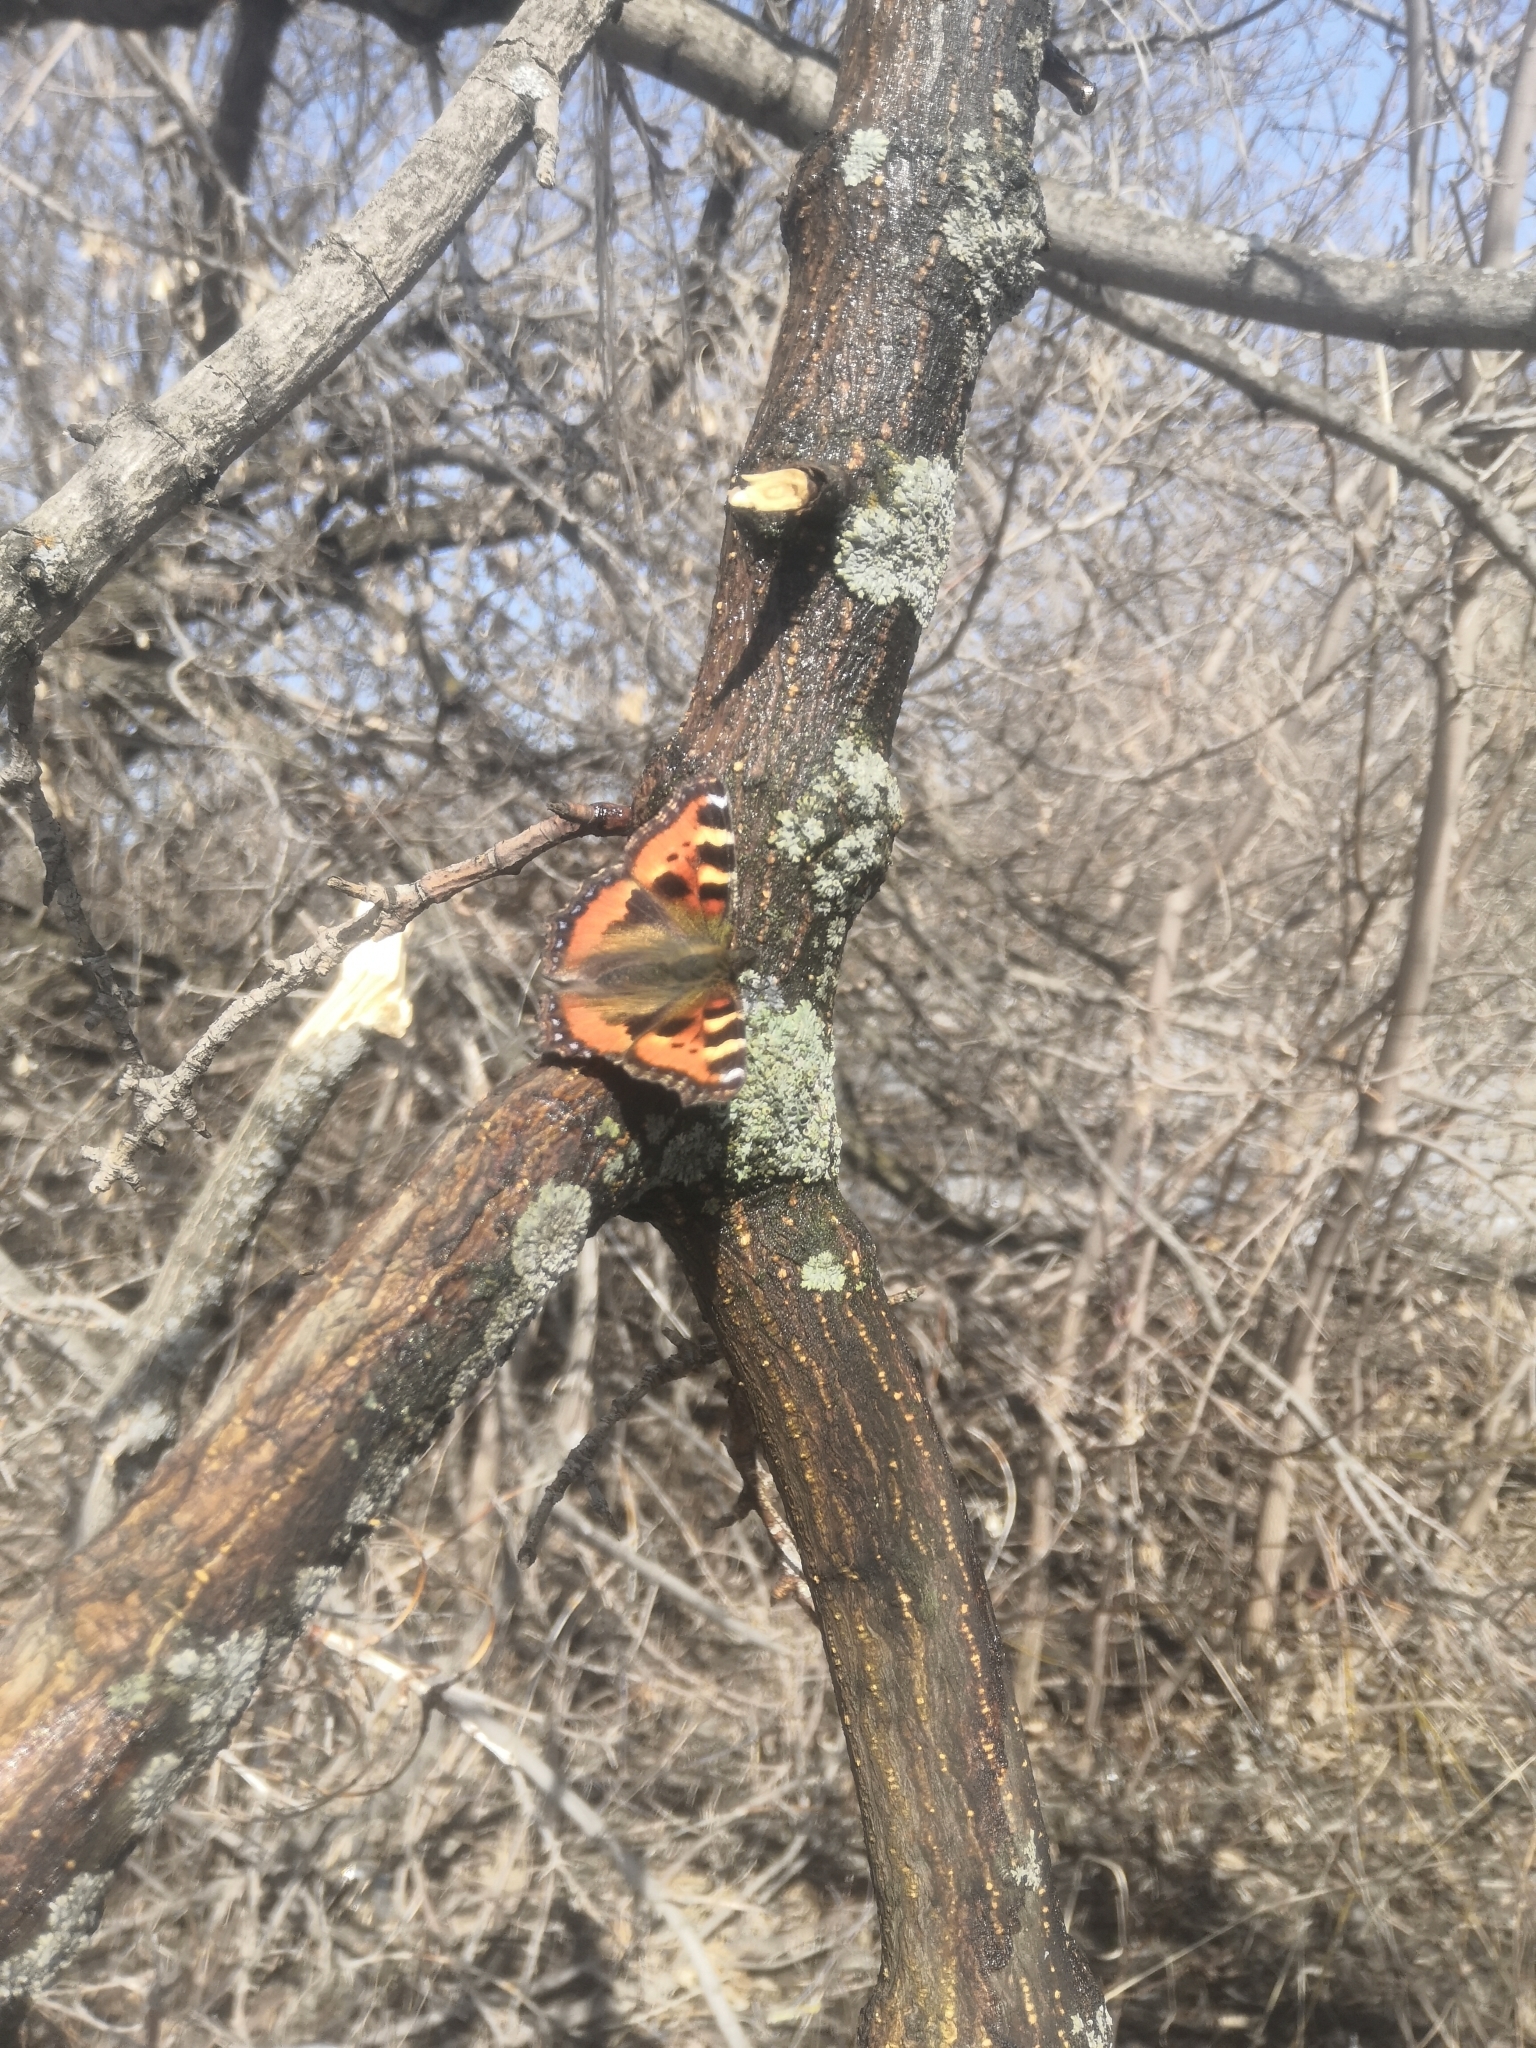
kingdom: Animalia
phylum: Arthropoda
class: Insecta
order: Lepidoptera
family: Nymphalidae
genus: Aglais
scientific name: Aglais urticae
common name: Small tortoiseshell
